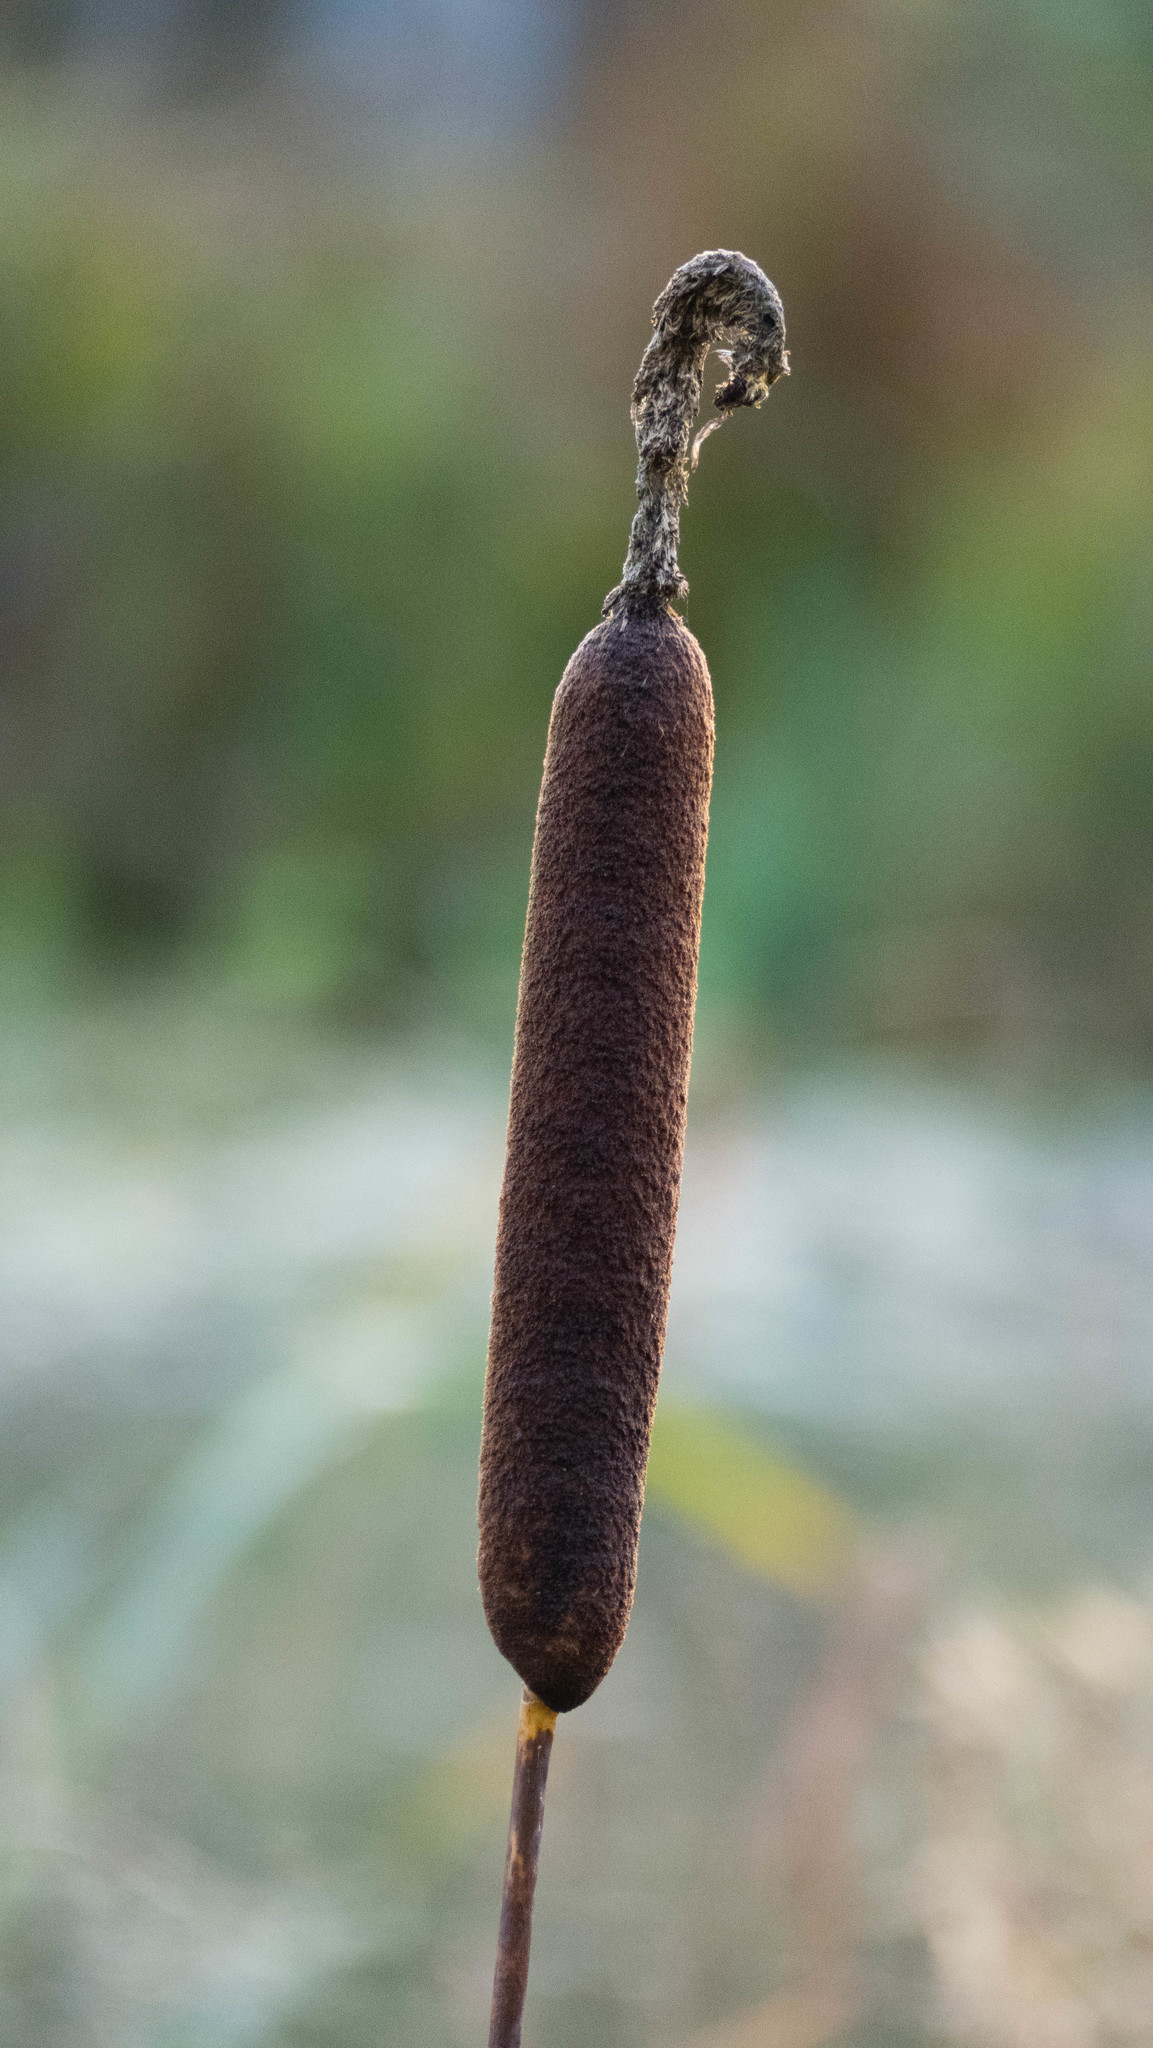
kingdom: Plantae
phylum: Tracheophyta
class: Liliopsida
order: Poales
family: Typhaceae
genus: Typha
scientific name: Typha latifolia
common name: Broadleaf cattail
